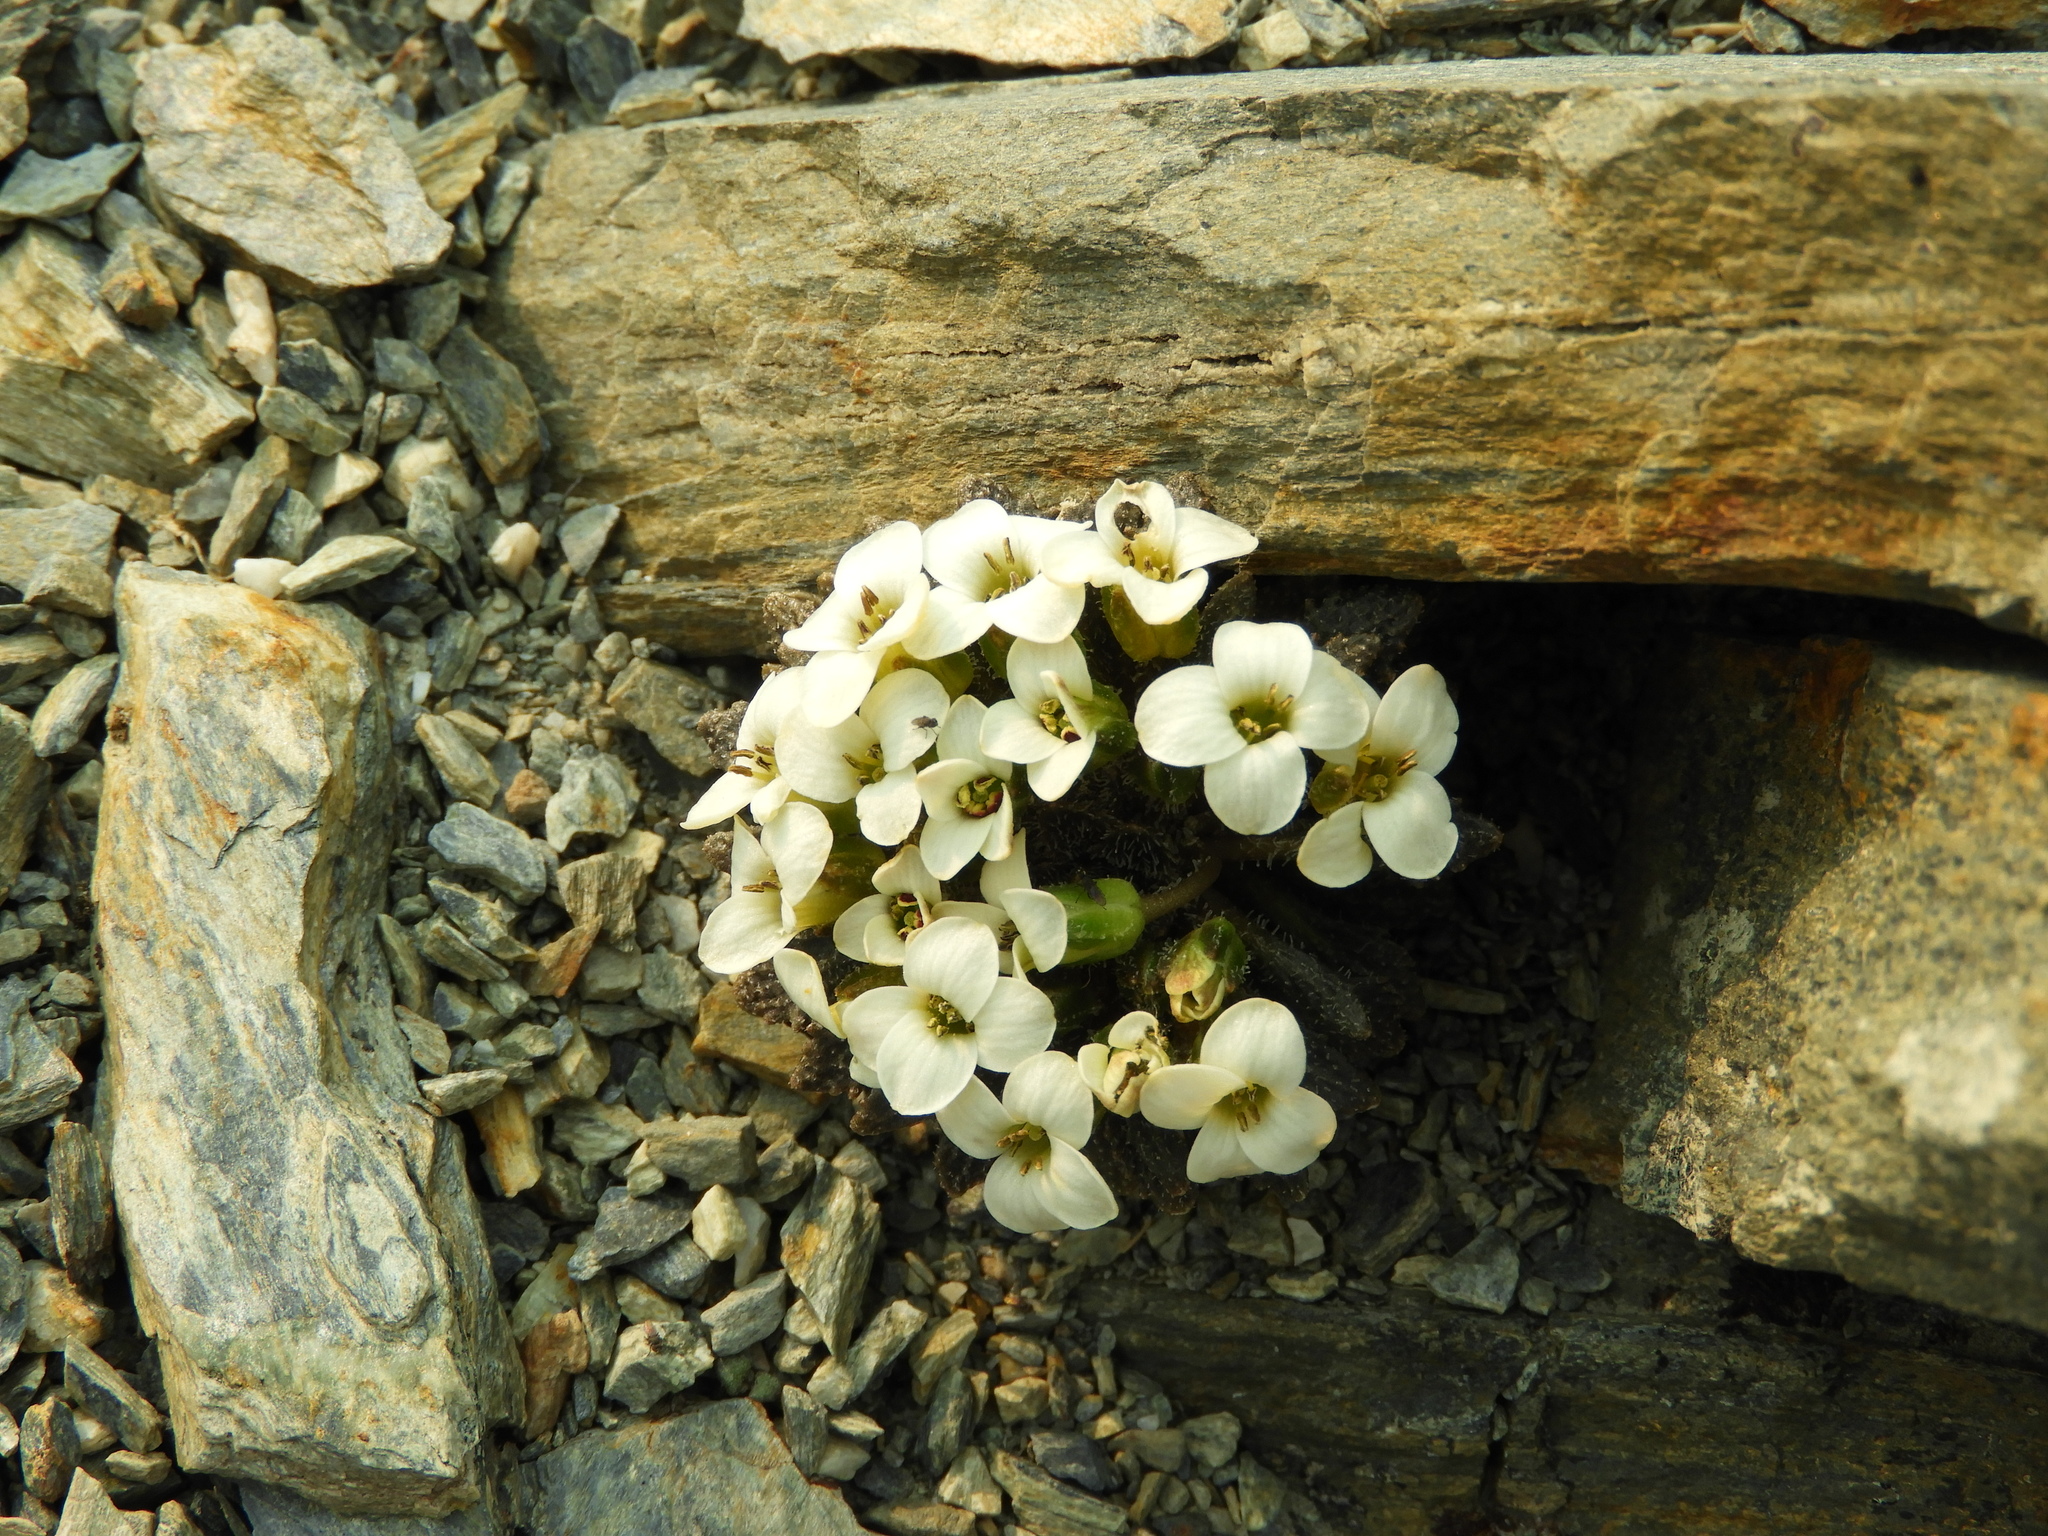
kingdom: Plantae
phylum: Tracheophyta
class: Magnoliopsida
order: Brassicales
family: Brassicaceae
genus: Notothlaspi
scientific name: Notothlaspi rosulatum
